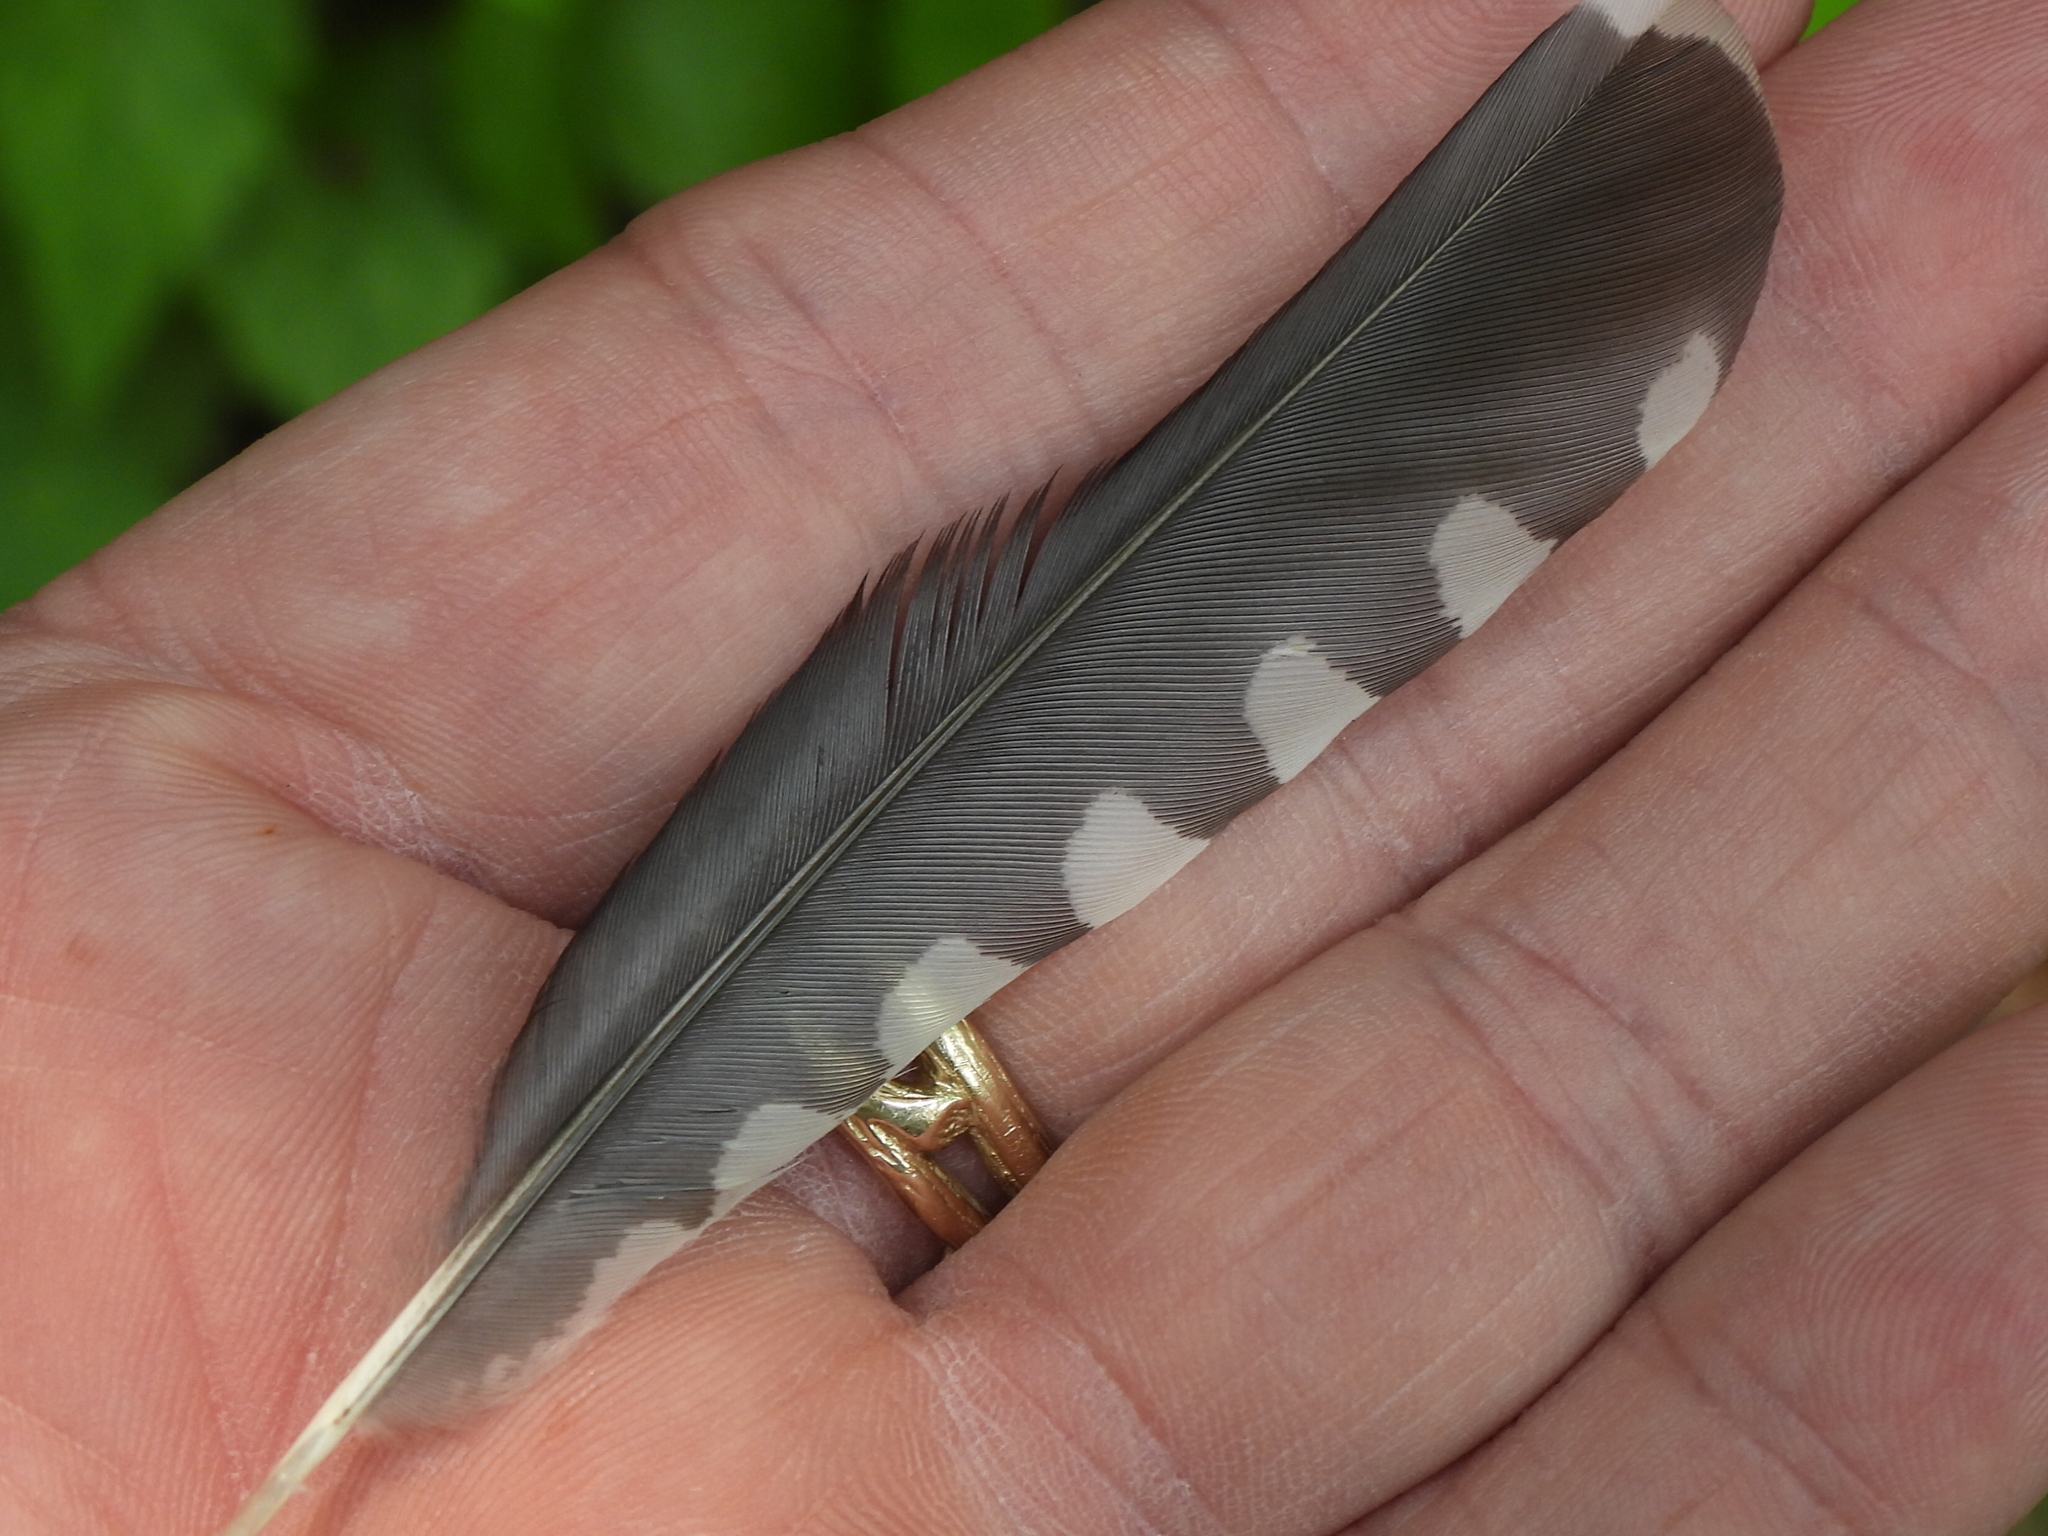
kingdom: Animalia
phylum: Chordata
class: Aves
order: Piciformes
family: Picidae
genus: Melanerpes
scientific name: Melanerpes carolinus
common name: Red-bellied woodpecker
